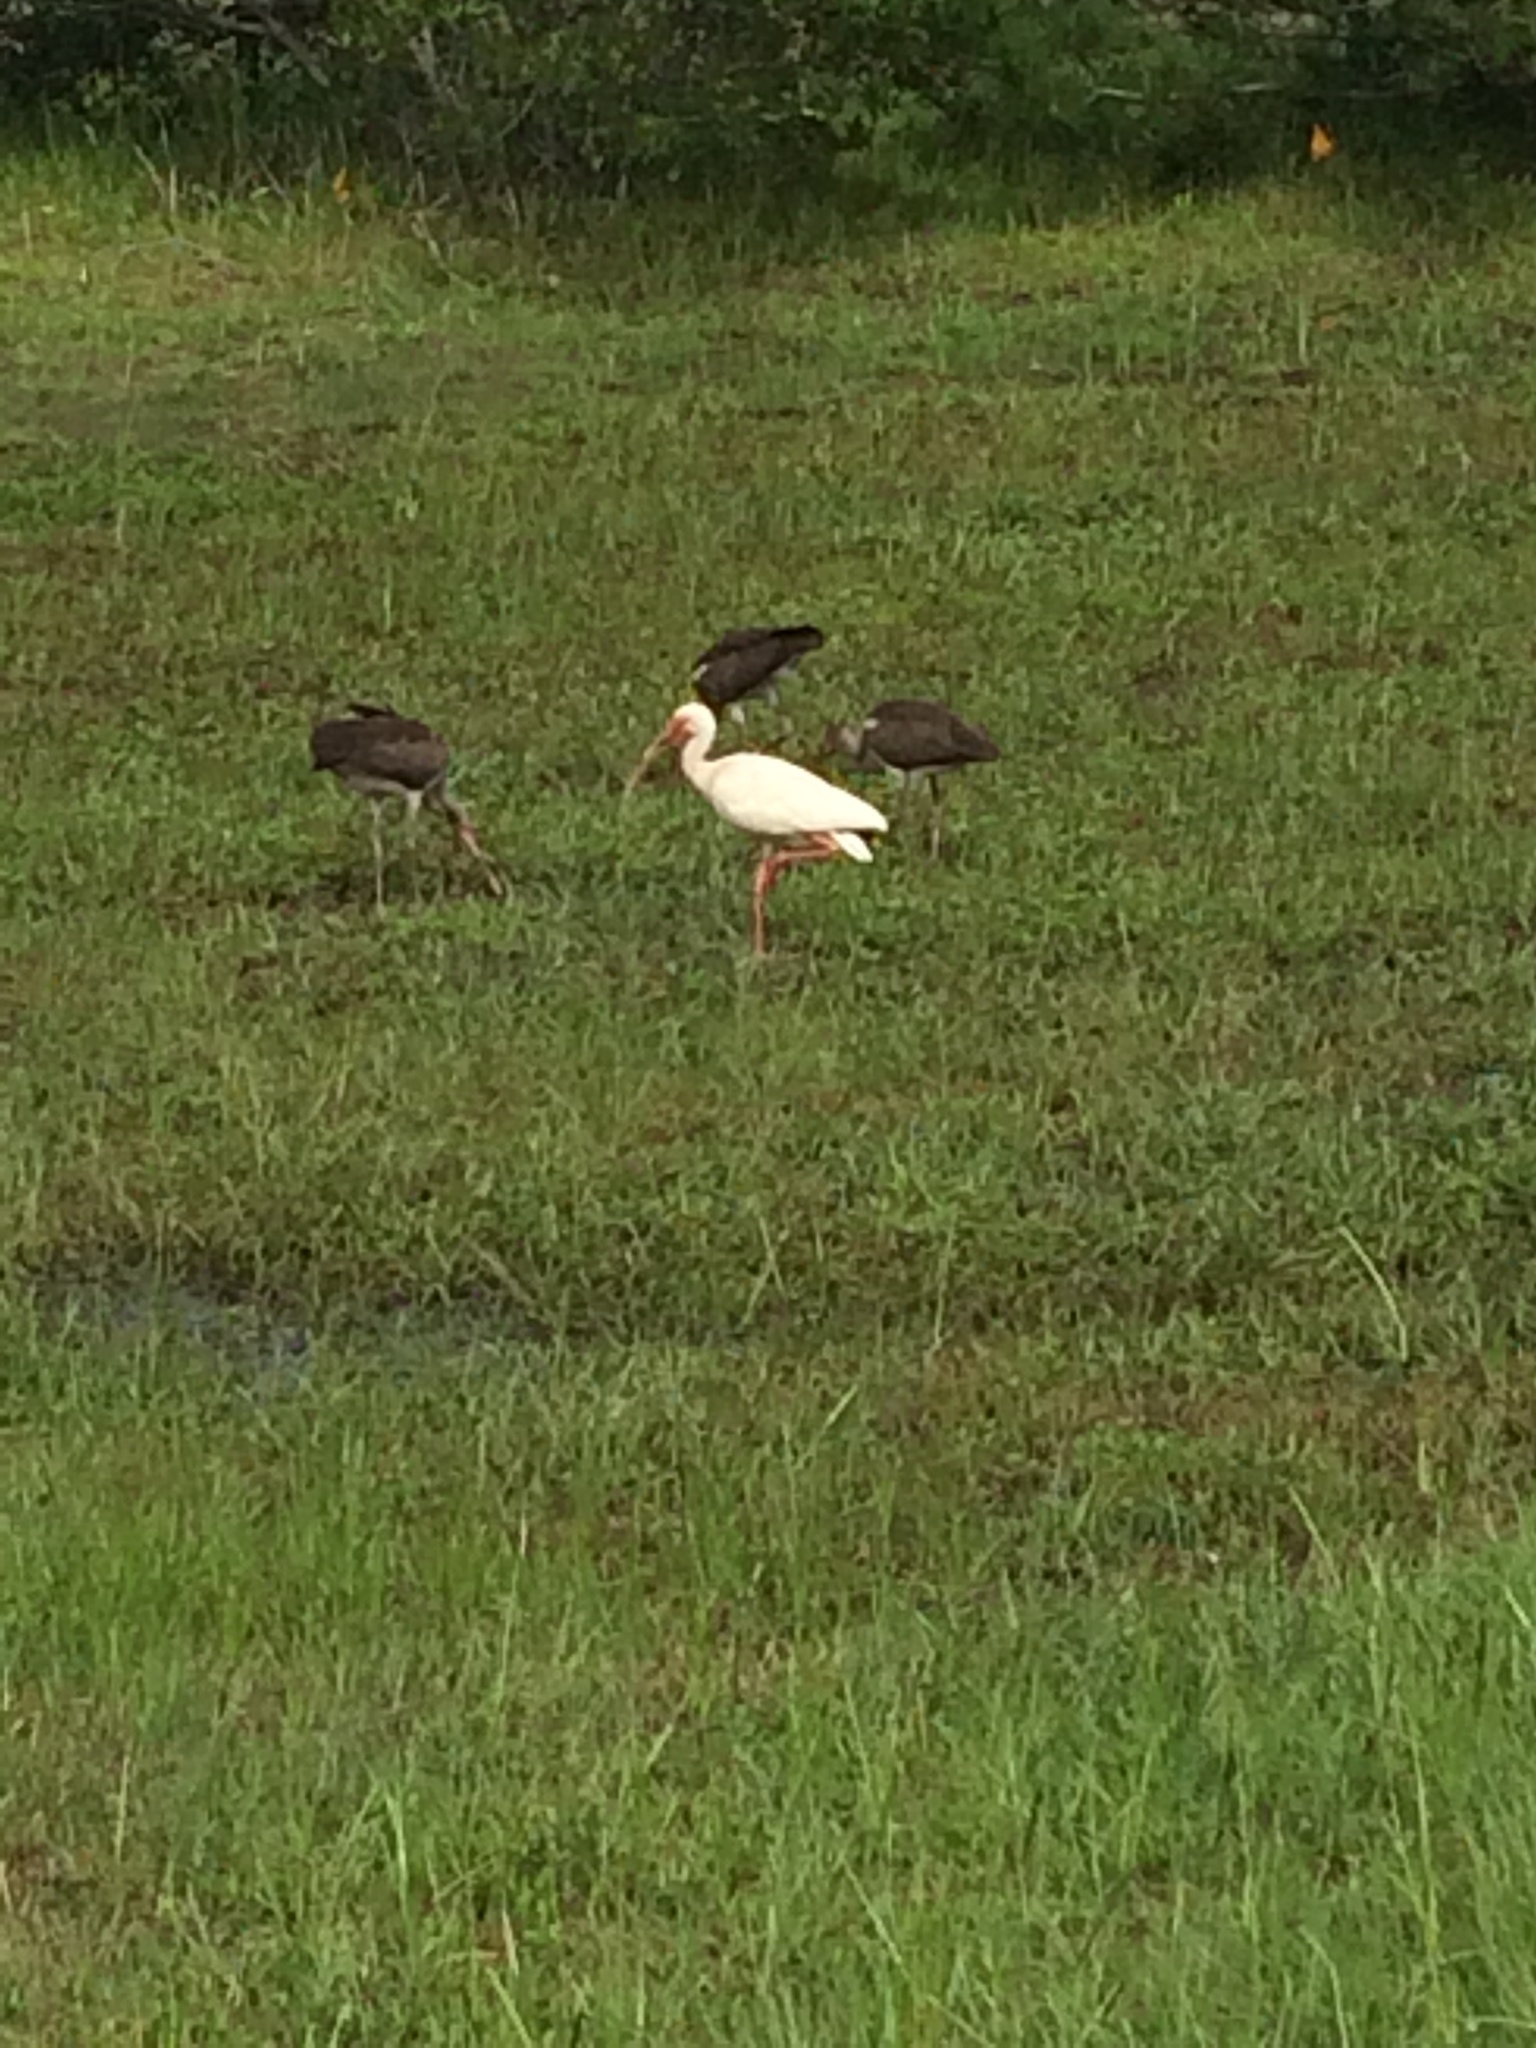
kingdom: Animalia
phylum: Chordata
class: Aves
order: Pelecaniformes
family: Threskiornithidae
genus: Eudocimus
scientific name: Eudocimus albus
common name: White ibis
